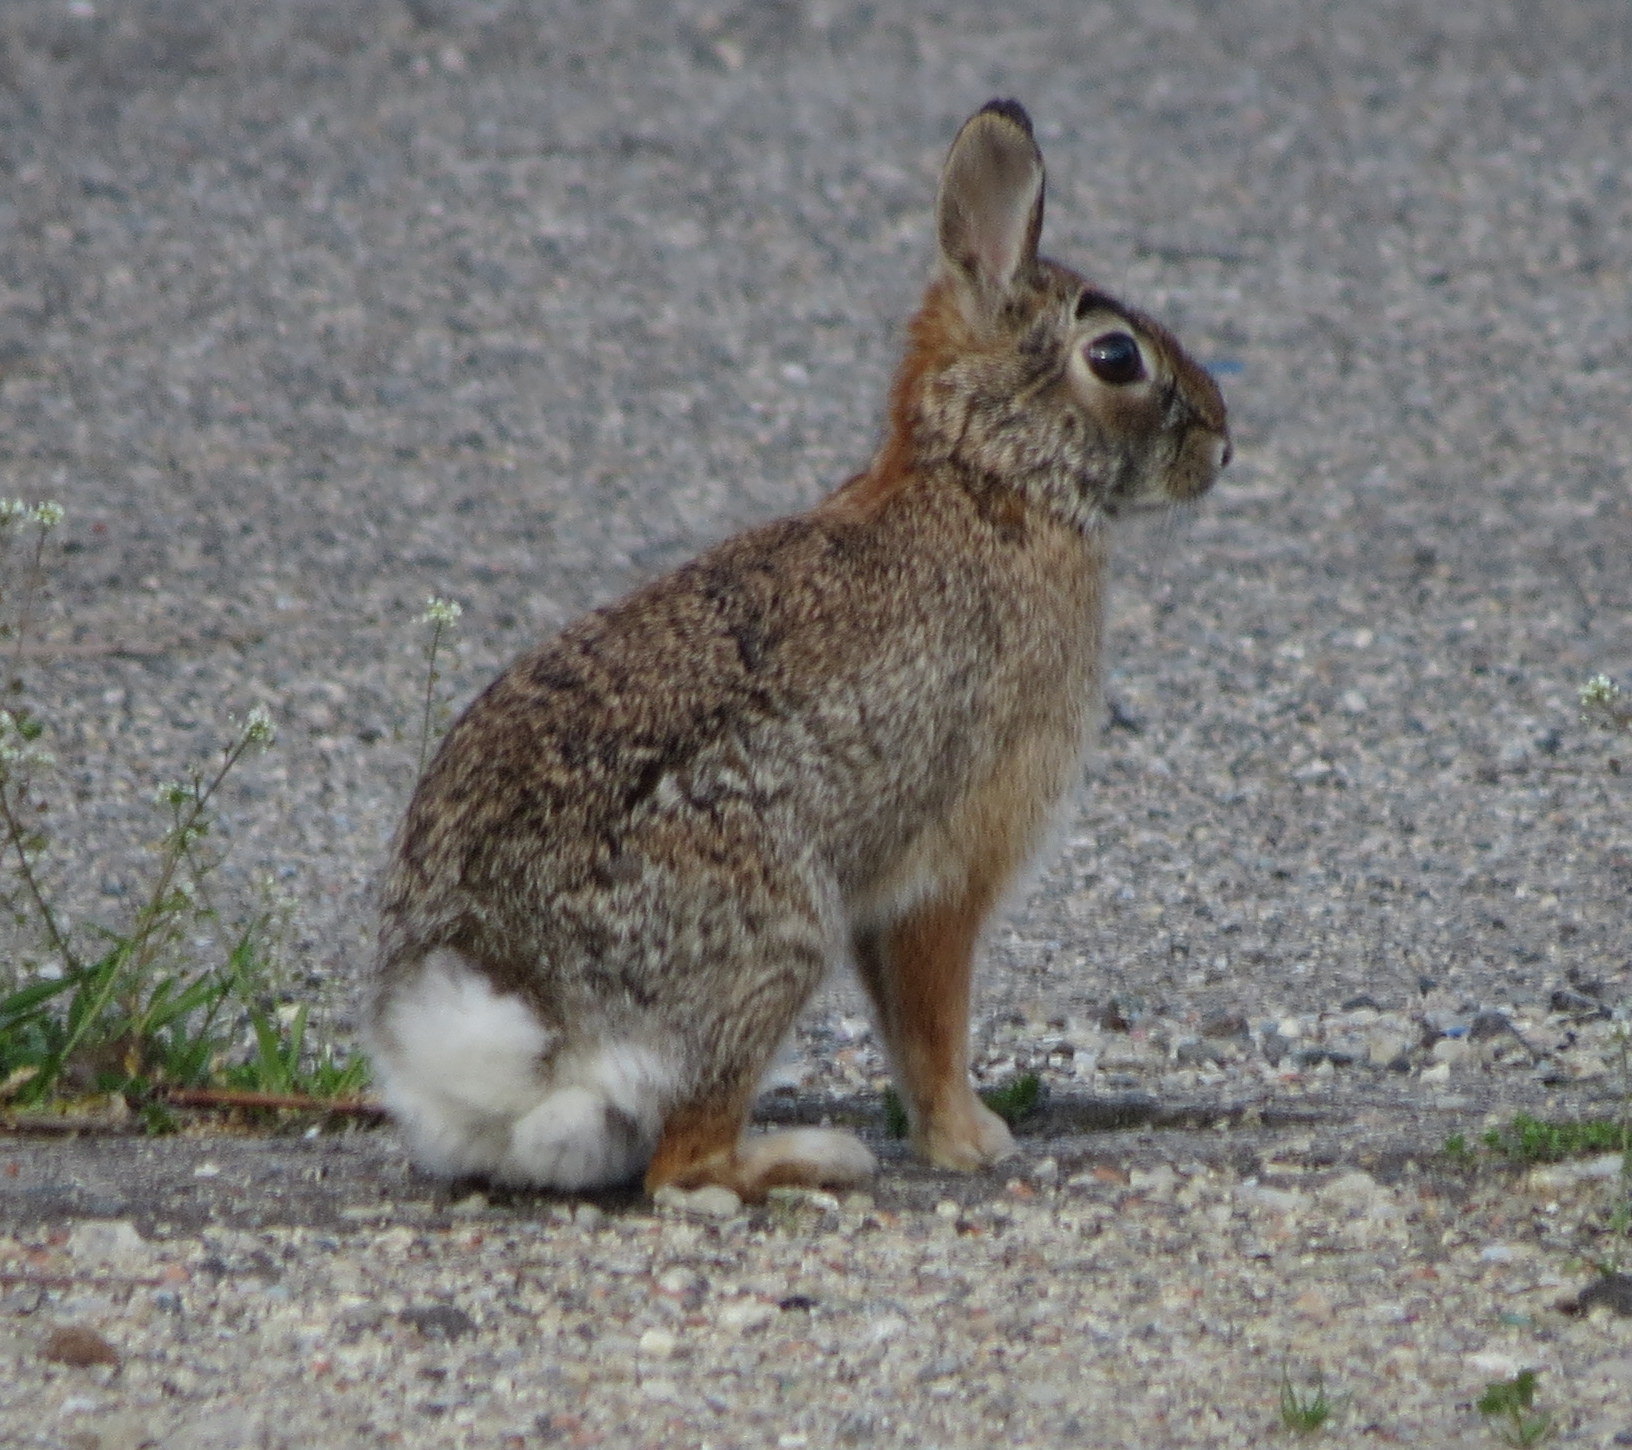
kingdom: Animalia
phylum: Chordata
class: Mammalia
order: Lagomorpha
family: Leporidae
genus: Sylvilagus
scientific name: Sylvilagus floridanus
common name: Eastern cottontail
